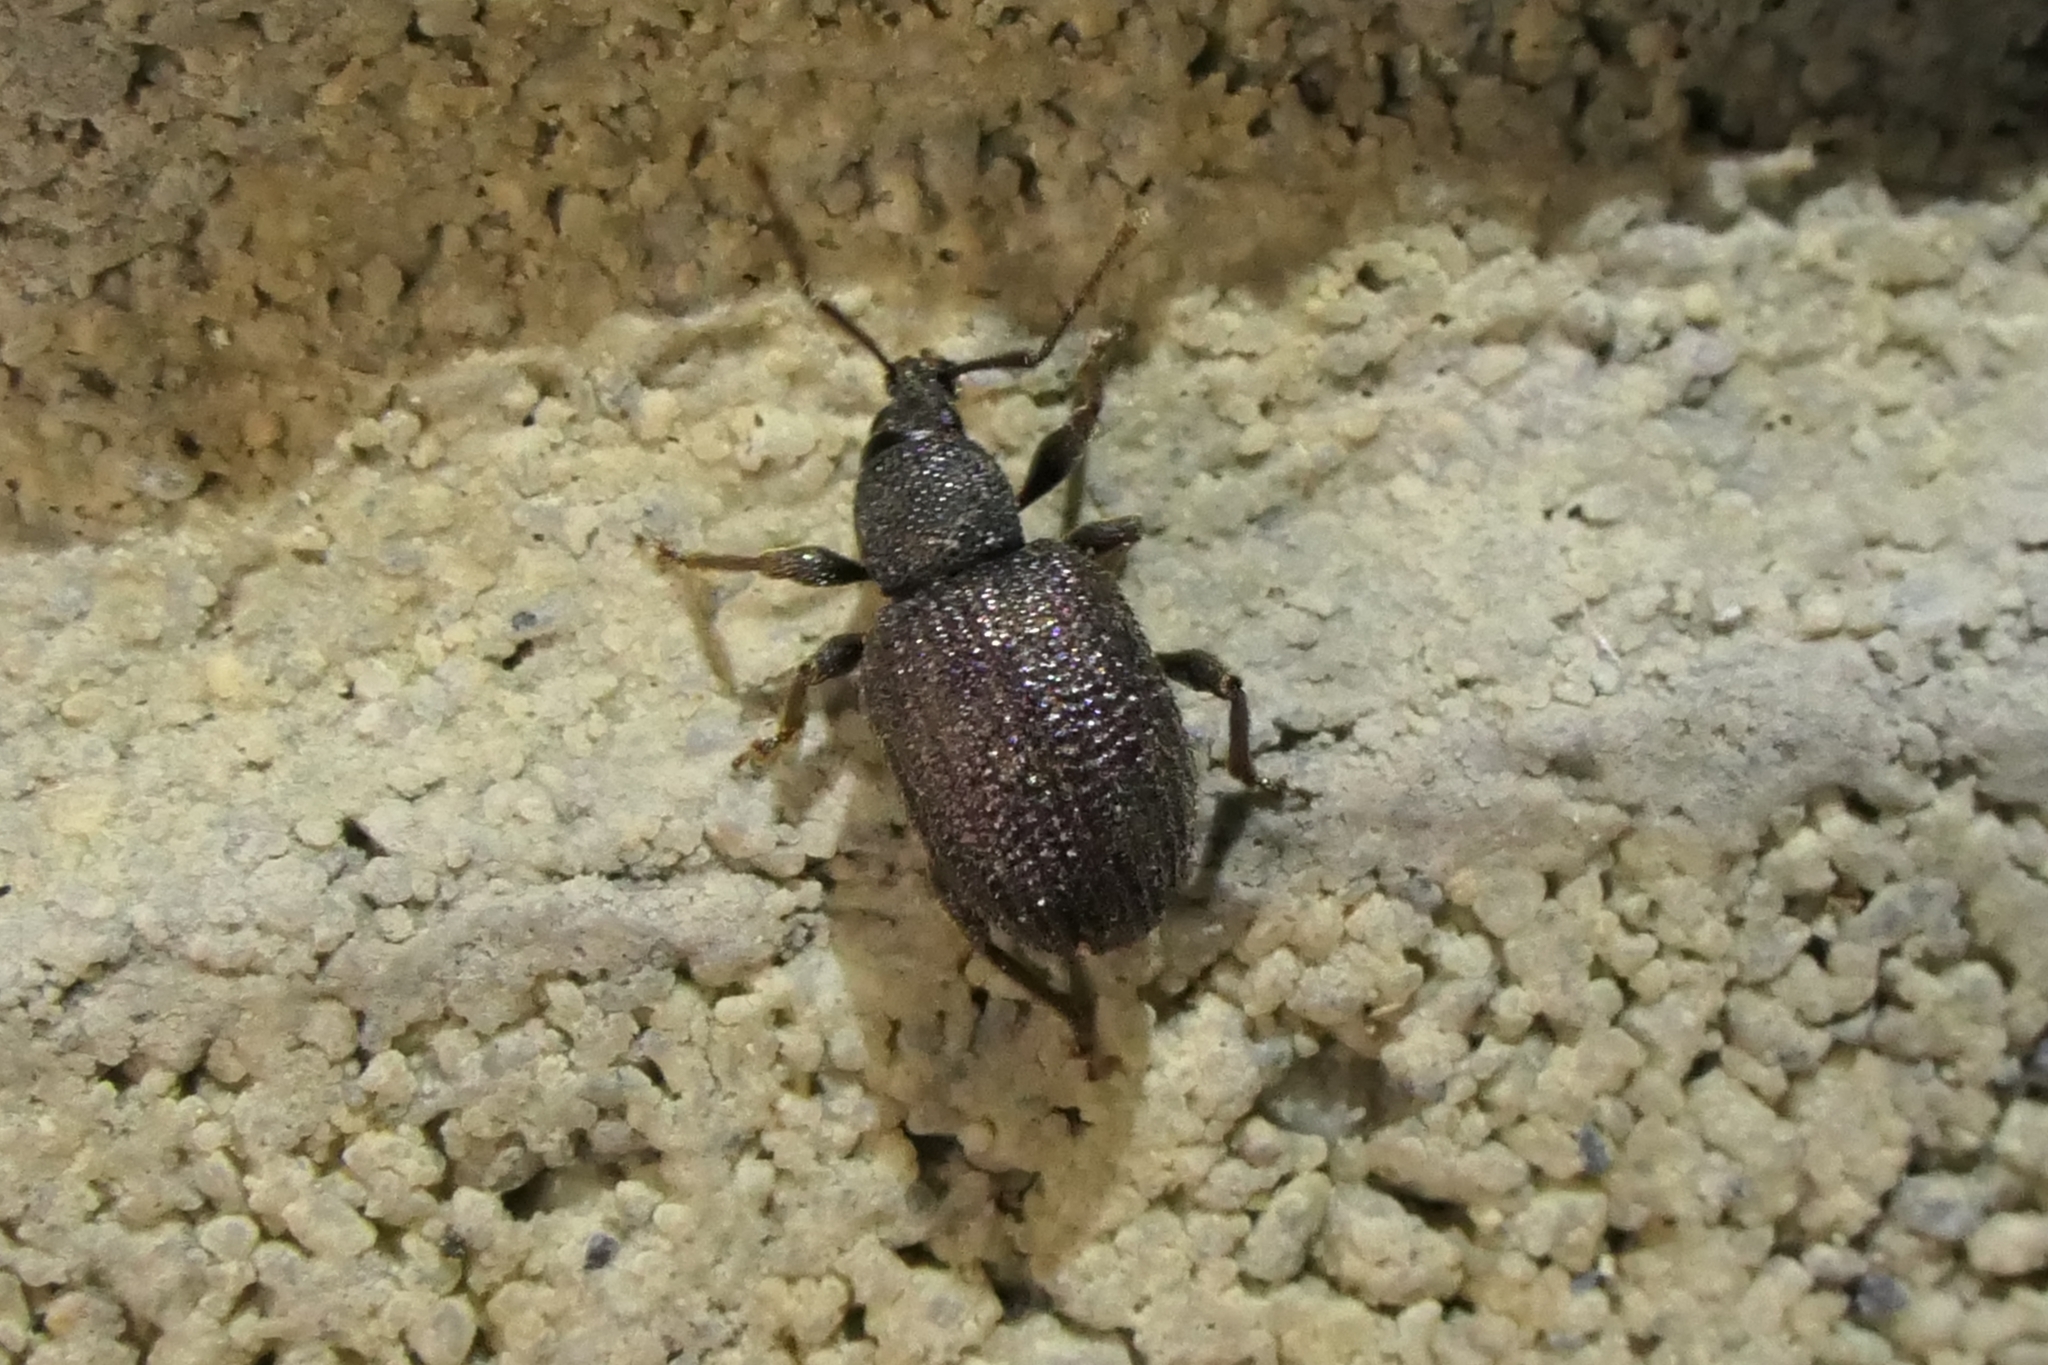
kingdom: Animalia
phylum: Arthropoda
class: Insecta
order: Coleoptera
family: Curculionidae
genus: Otiorhynchus
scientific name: Otiorhynchus rugosostriatus
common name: Weevil
